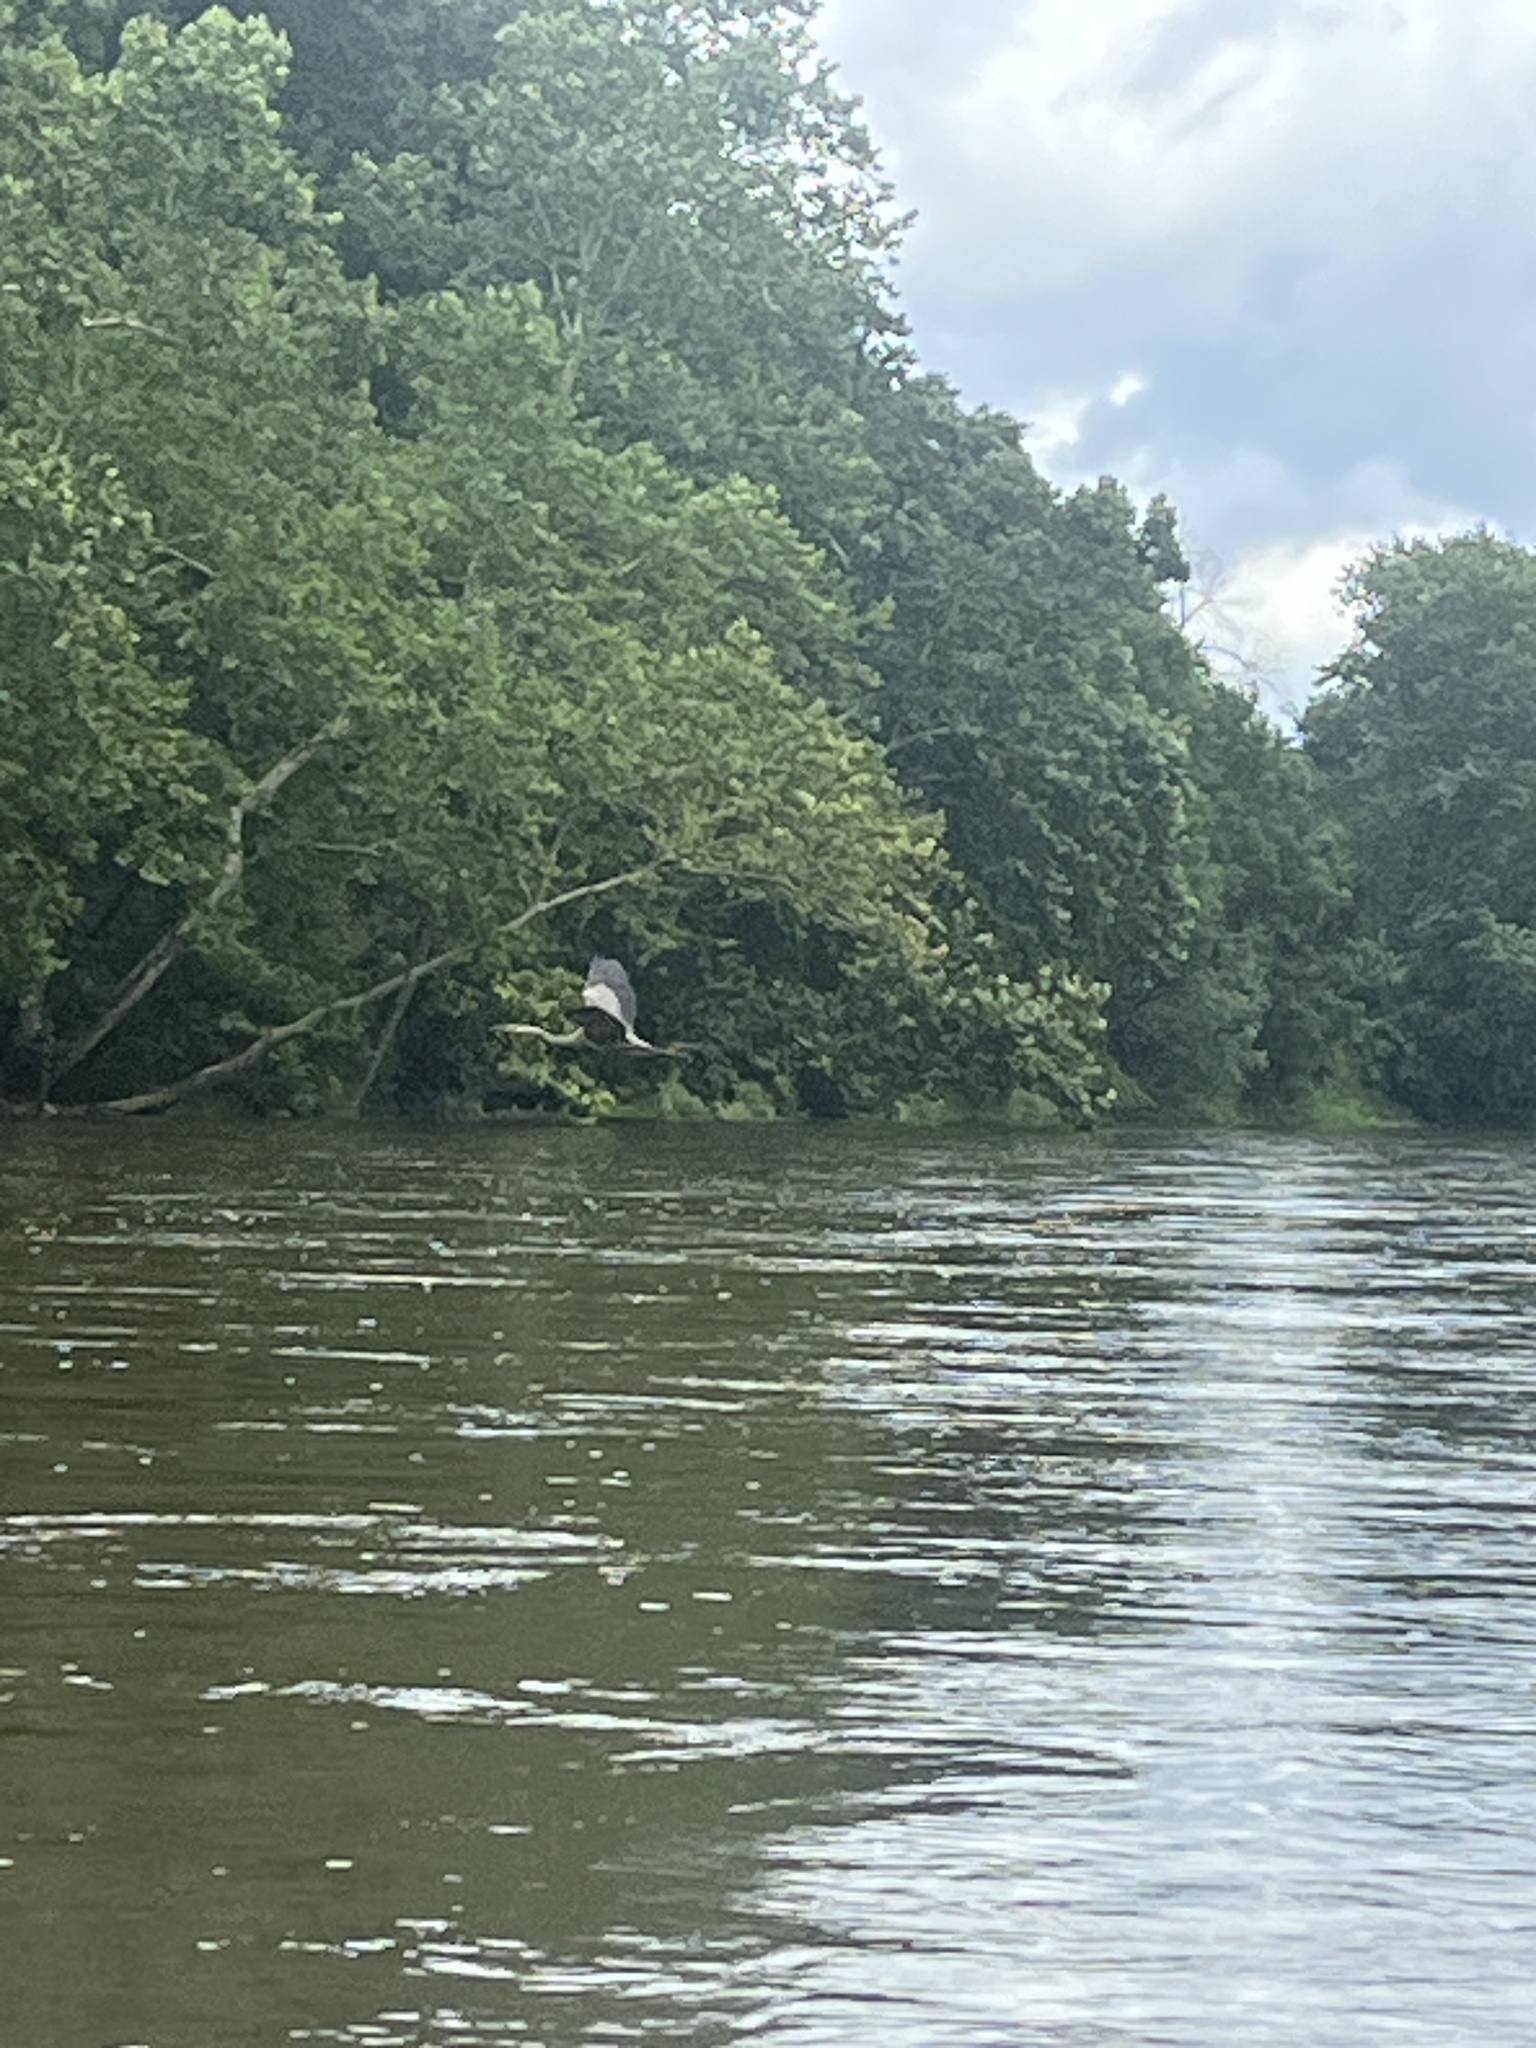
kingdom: Animalia
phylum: Chordata
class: Aves
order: Pelecaniformes
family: Ardeidae
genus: Ardea
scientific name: Ardea herodias
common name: Great blue heron
